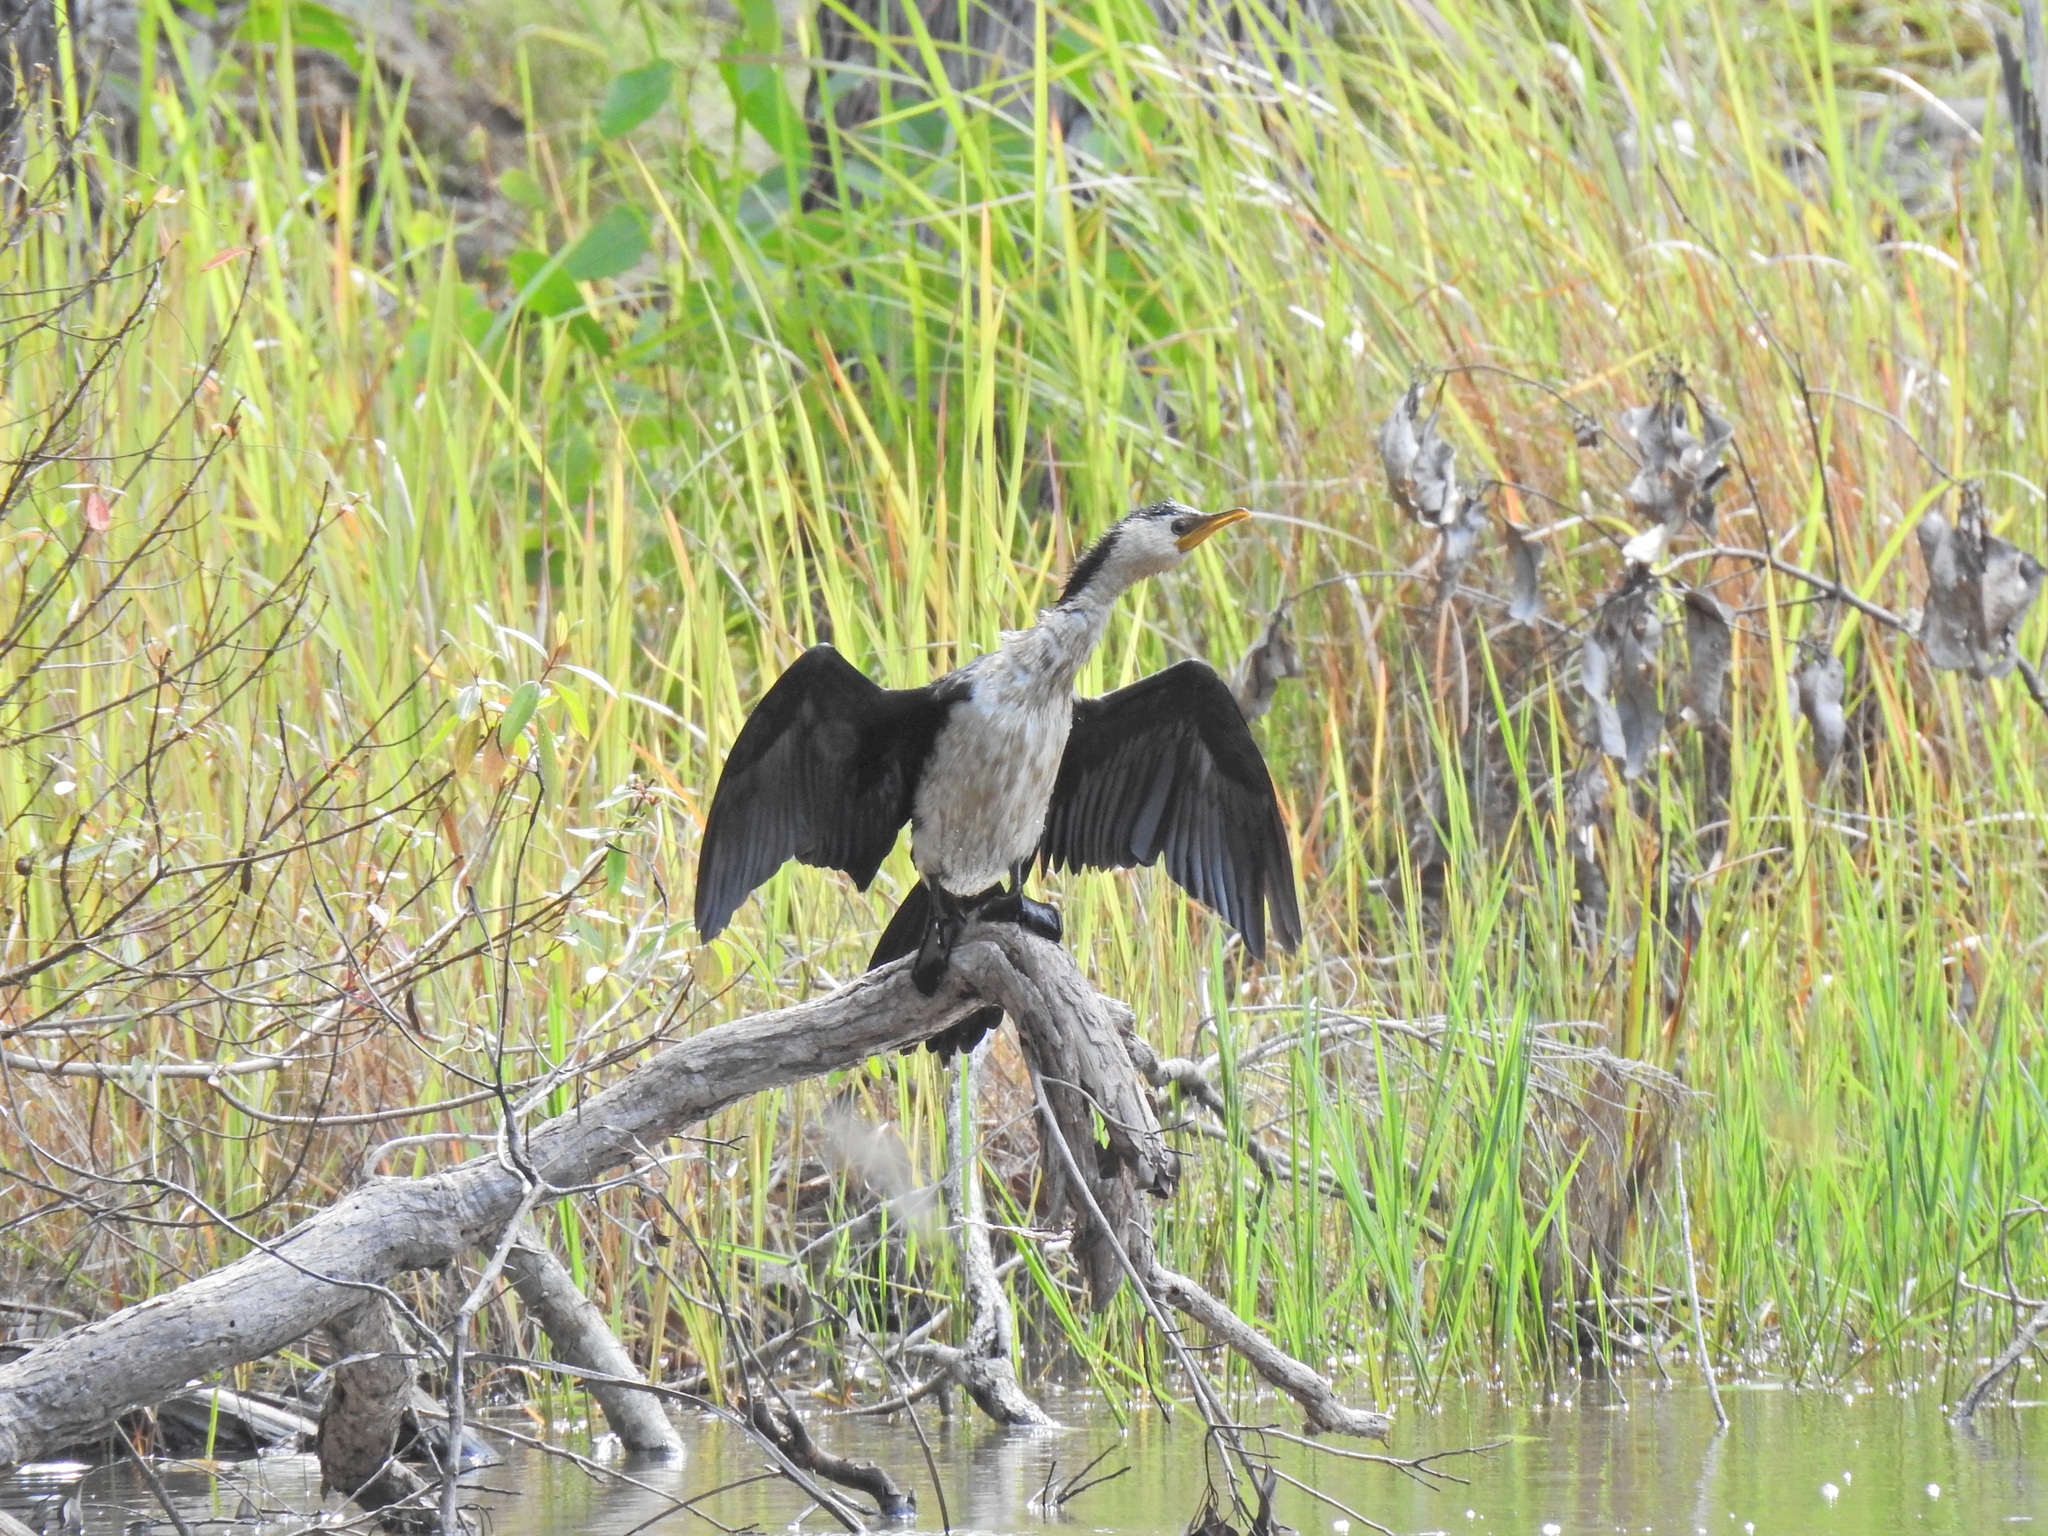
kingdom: Animalia
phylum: Chordata
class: Aves
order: Suliformes
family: Phalacrocoracidae
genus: Microcarbo
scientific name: Microcarbo melanoleucos
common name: Little pied cormorant
